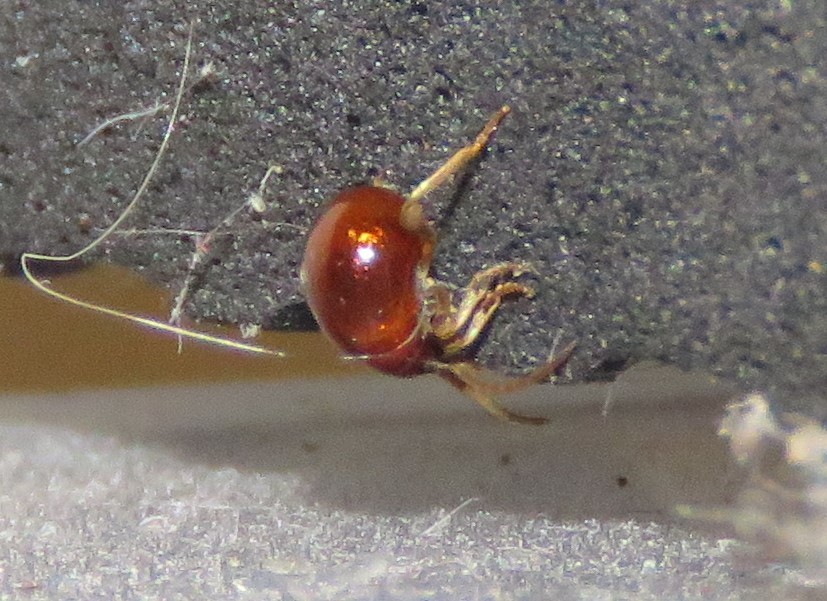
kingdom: Animalia
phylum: Arthropoda
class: Insecta
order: Coleoptera
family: Ptinidae
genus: Gibbium
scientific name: Gibbium aequinoctiale
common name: Smooth spider beetle
